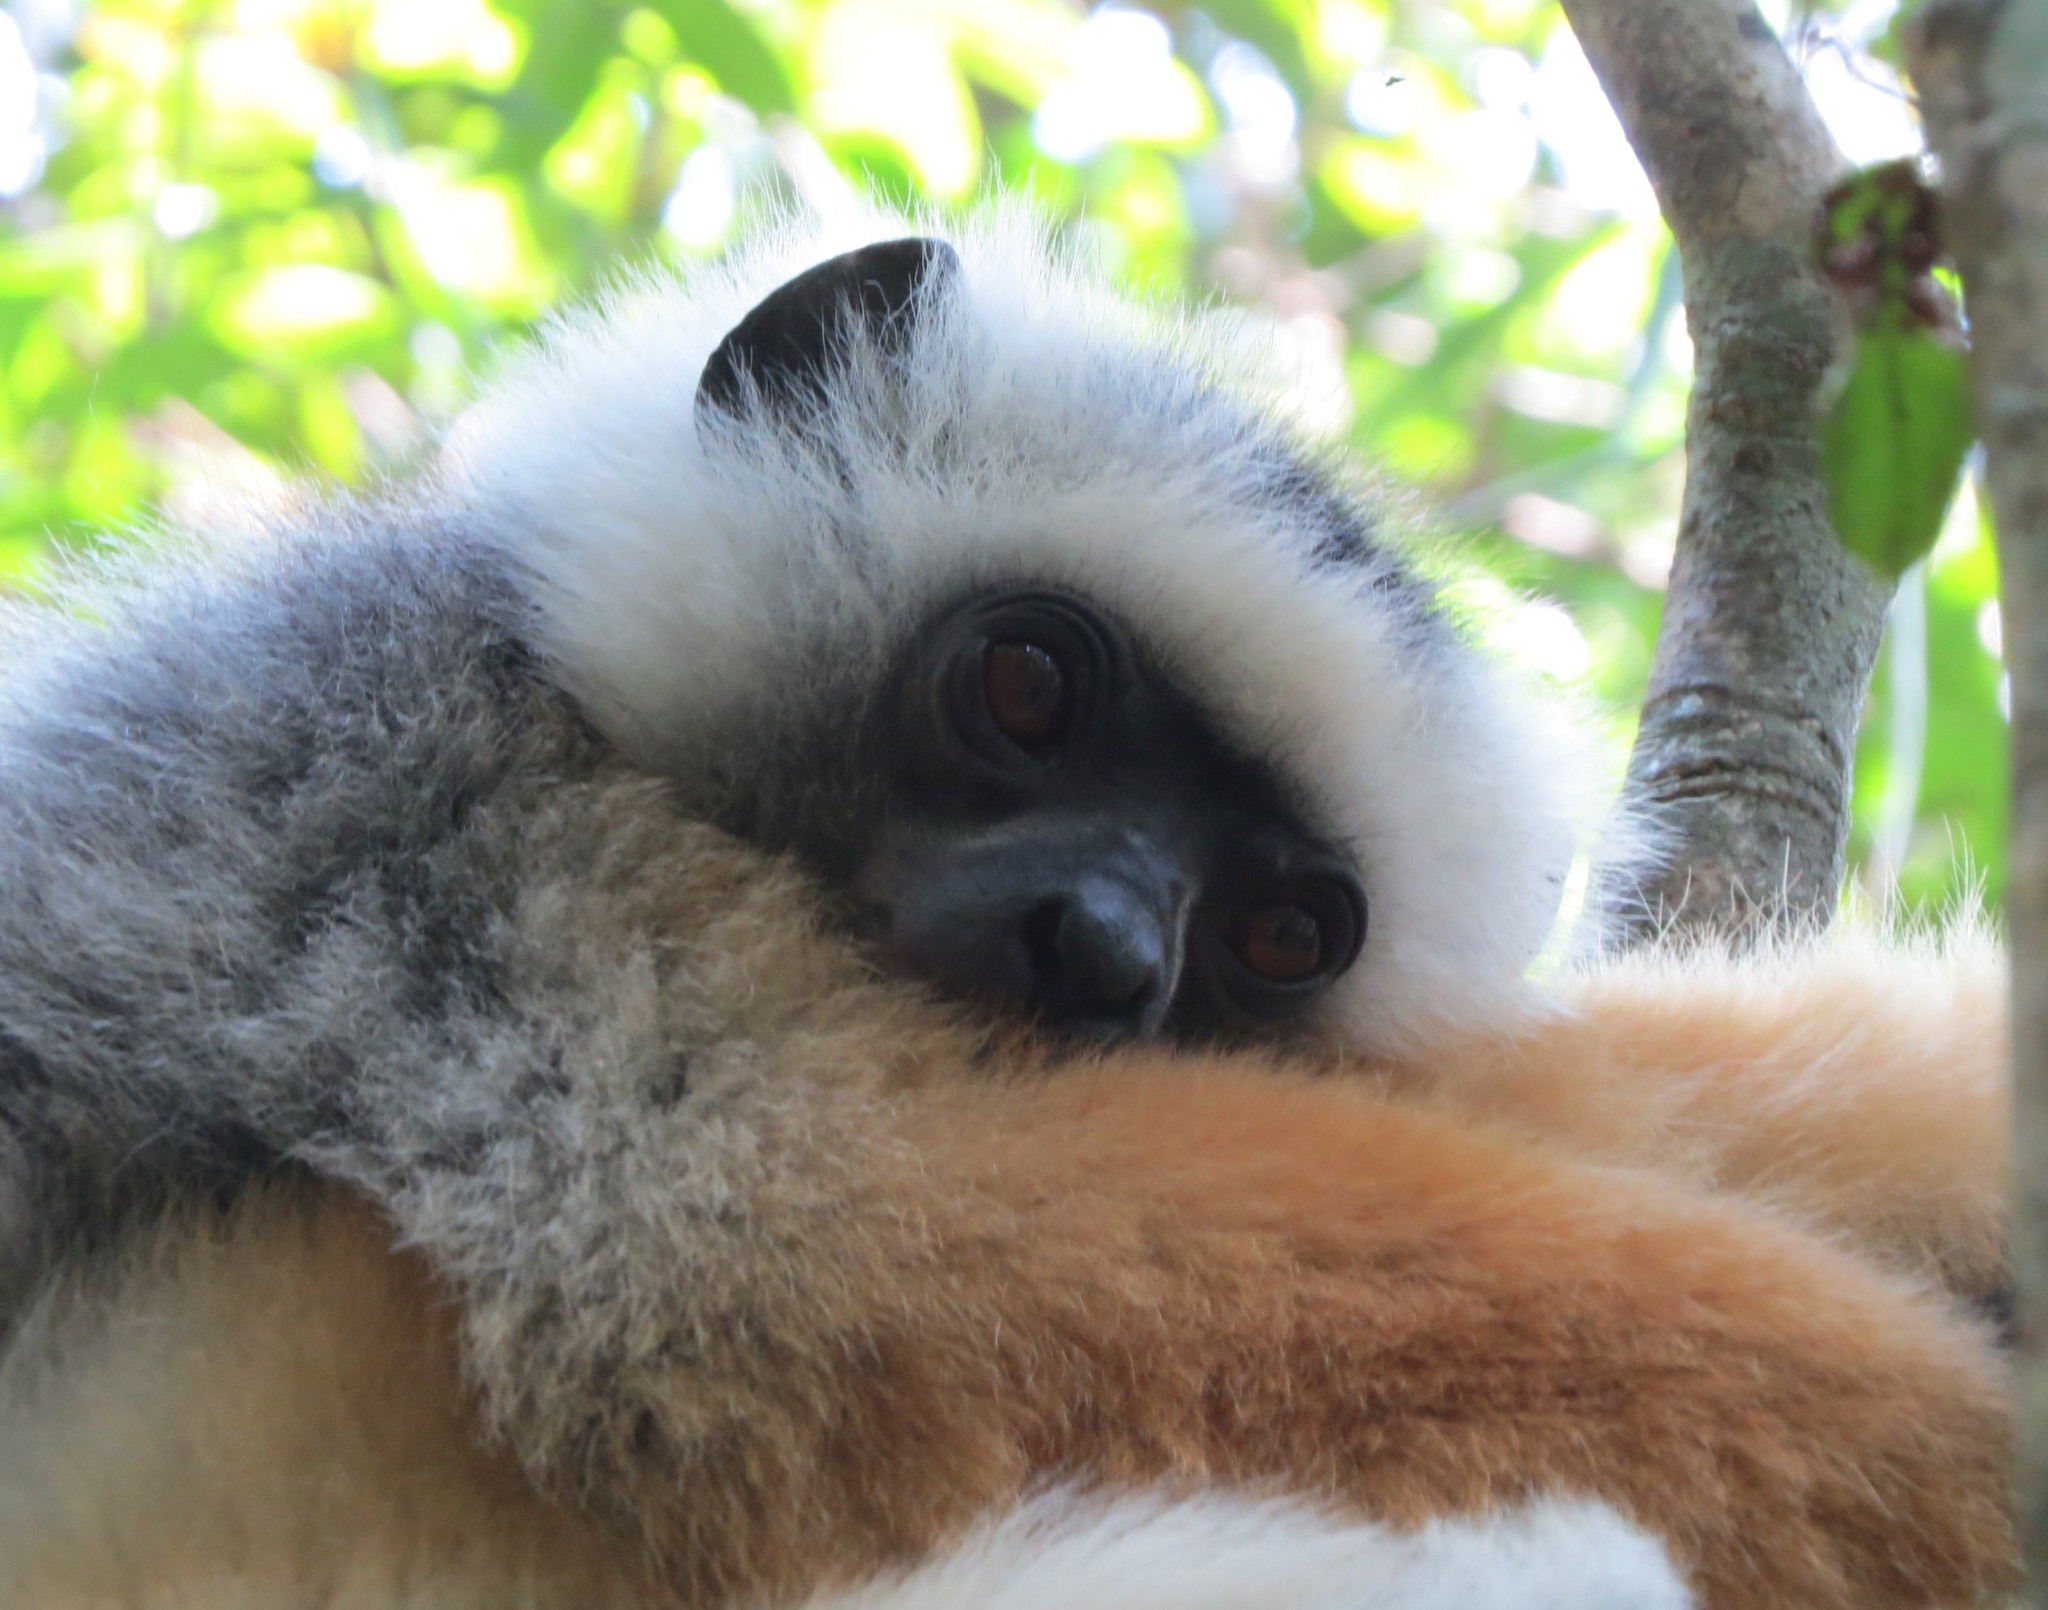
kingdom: Animalia
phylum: Chordata
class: Mammalia
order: Primates
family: Indriidae
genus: Propithecus
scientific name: Propithecus diadema
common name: Diademed sifaka
